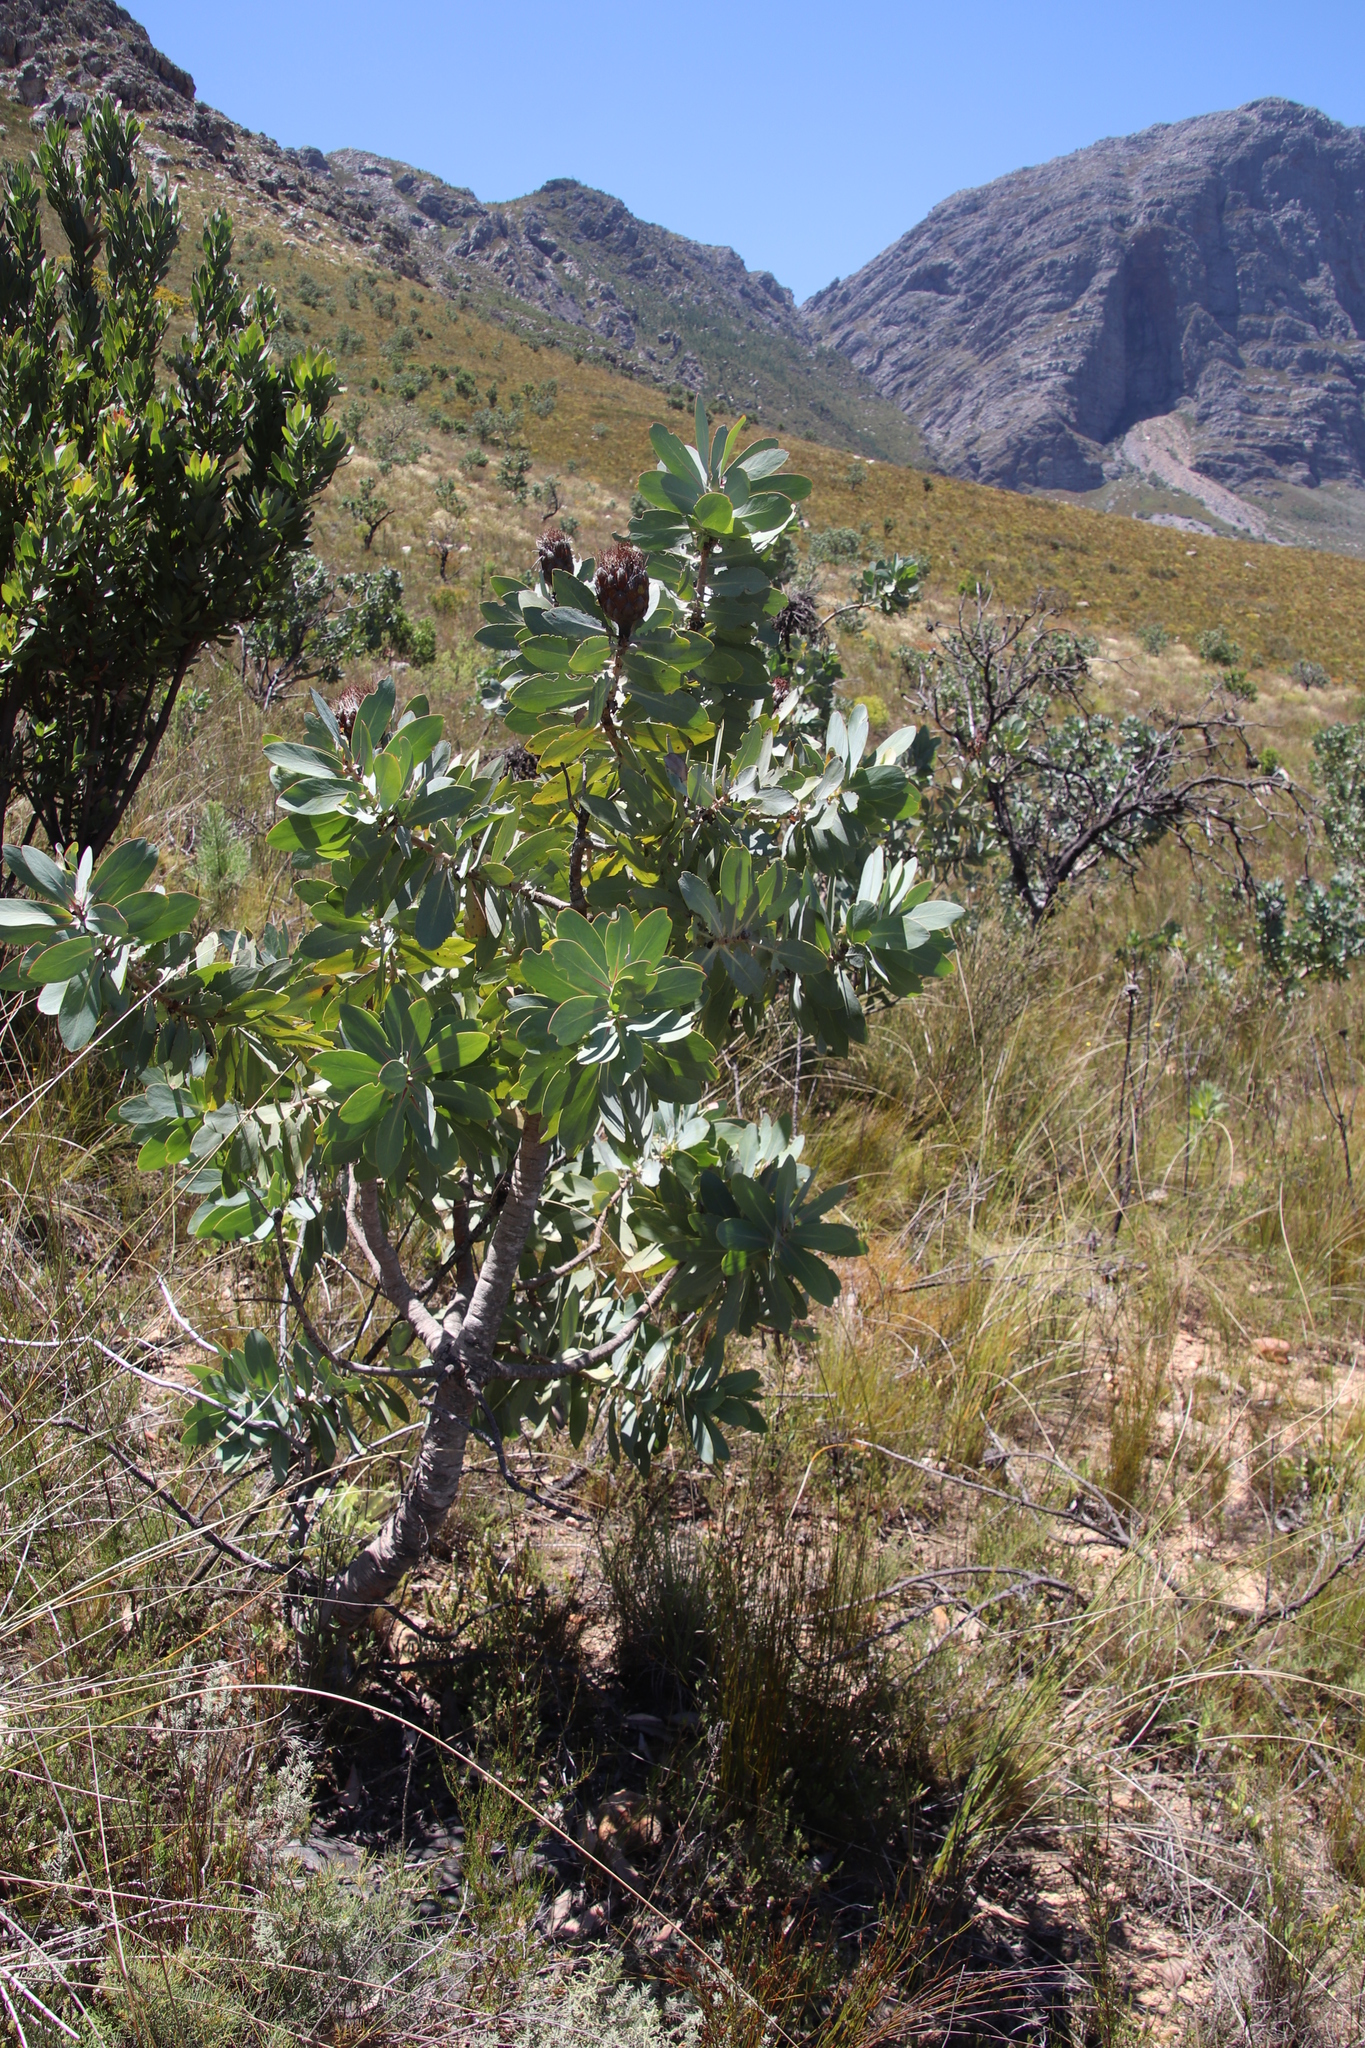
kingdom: Plantae
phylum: Tracheophyta
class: Magnoliopsida
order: Proteales
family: Proteaceae
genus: Protea
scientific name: Protea nitida
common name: Tree protea
